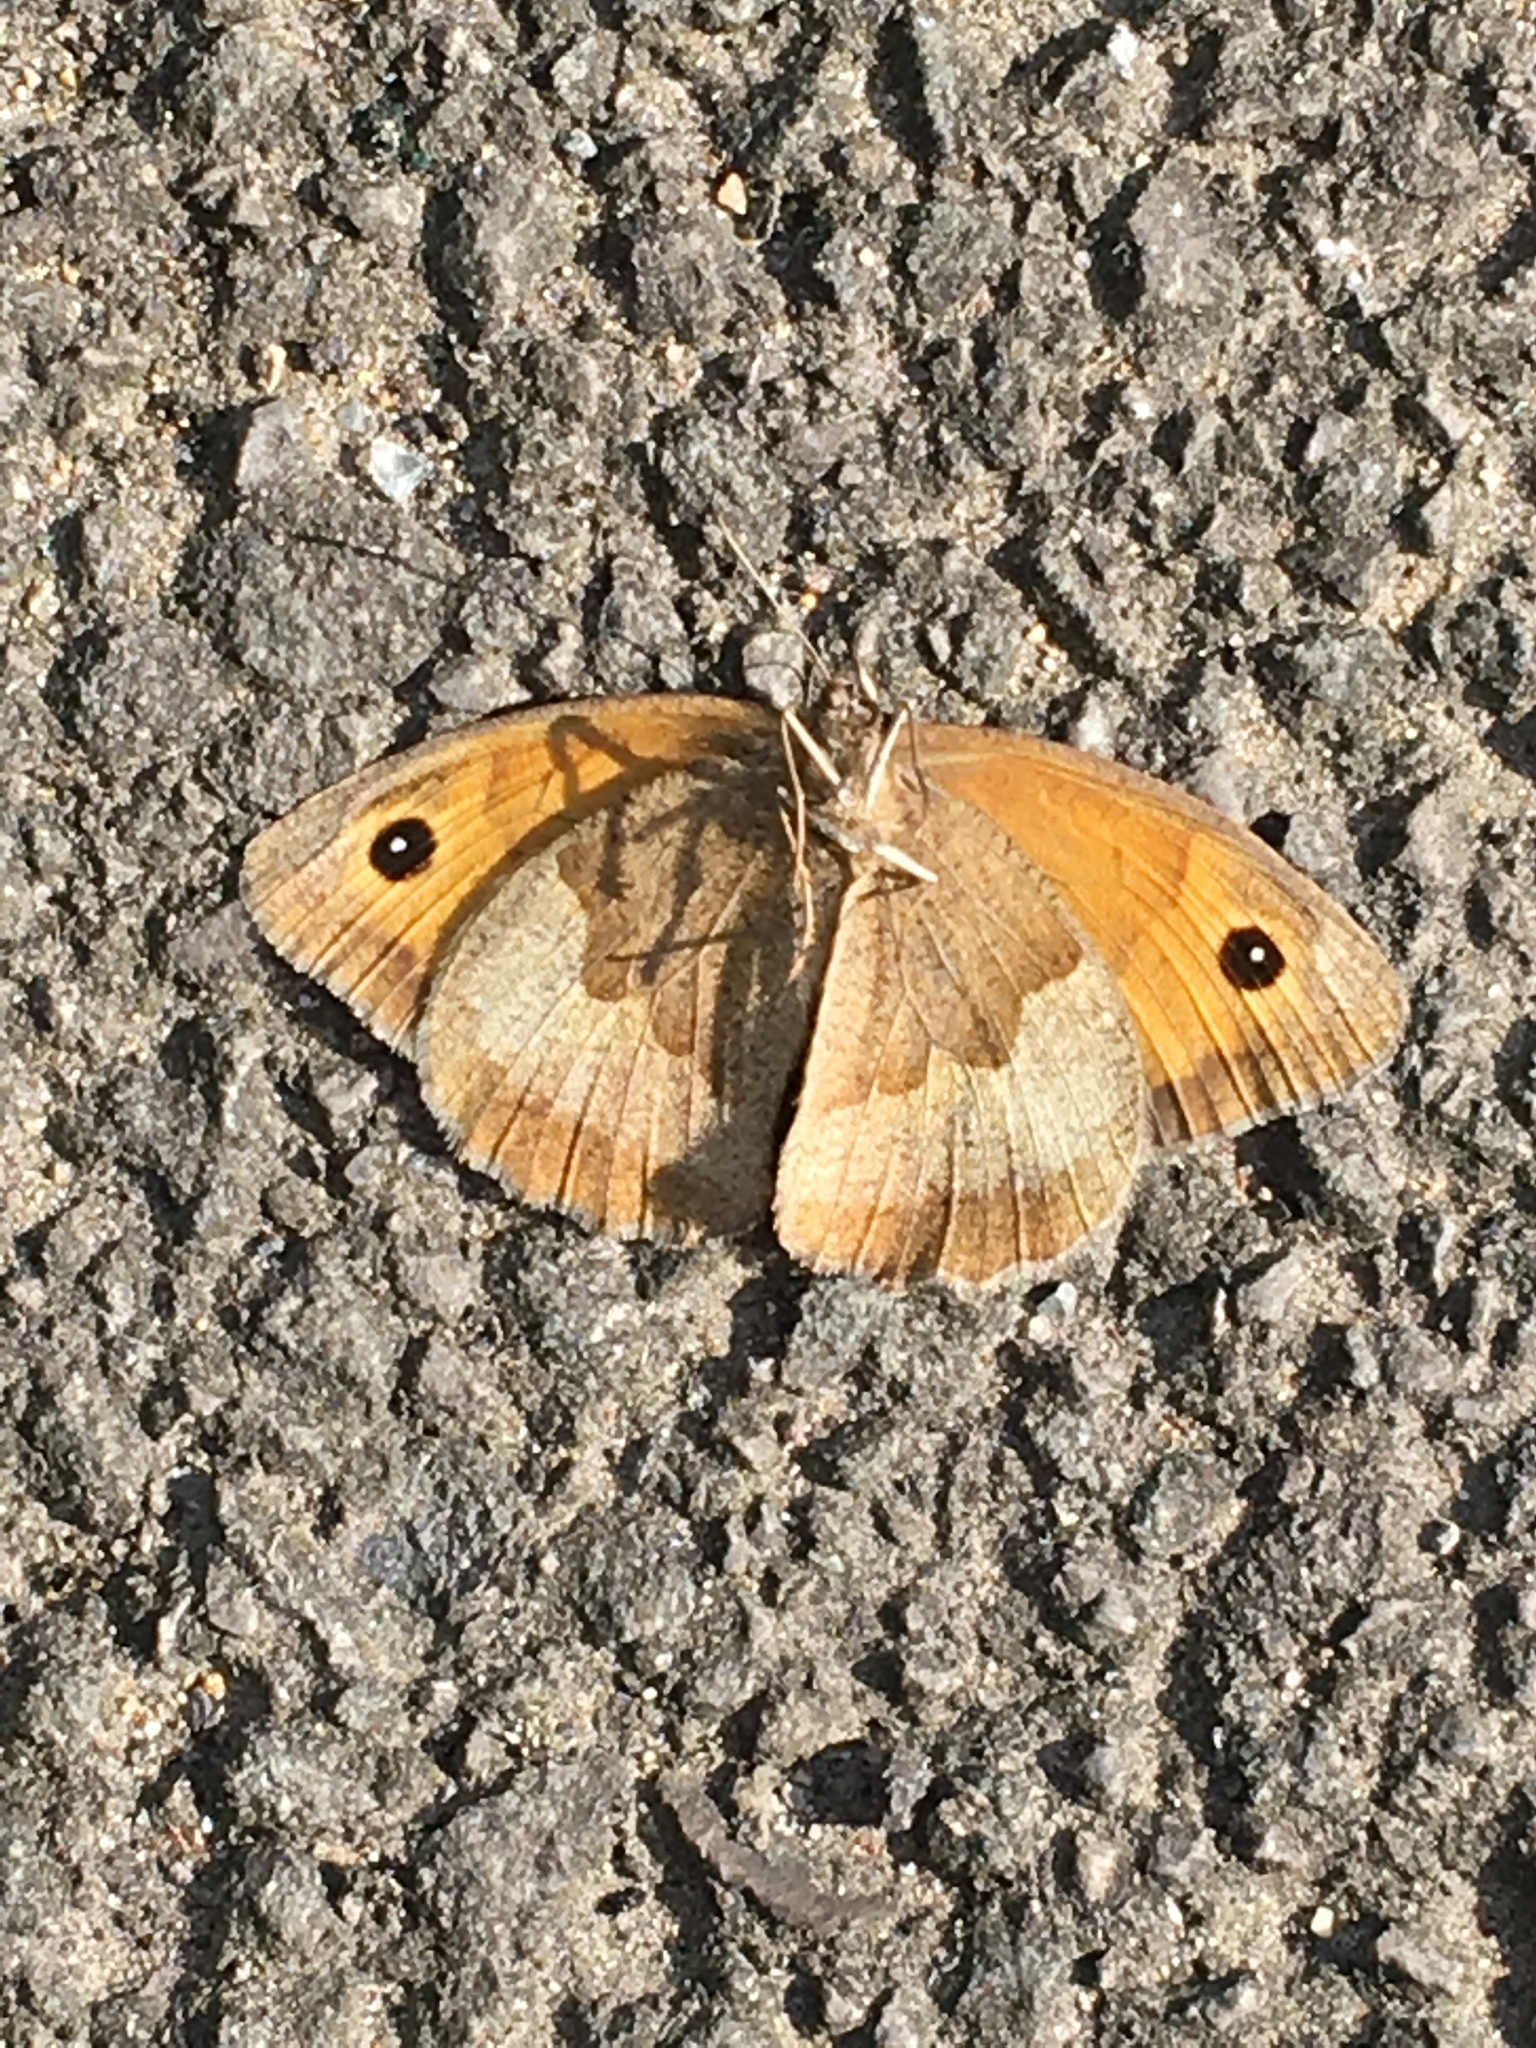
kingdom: Animalia
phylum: Arthropoda
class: Insecta
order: Lepidoptera
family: Nymphalidae
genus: Maniola
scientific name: Maniola jurtina
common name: Meadow brown
